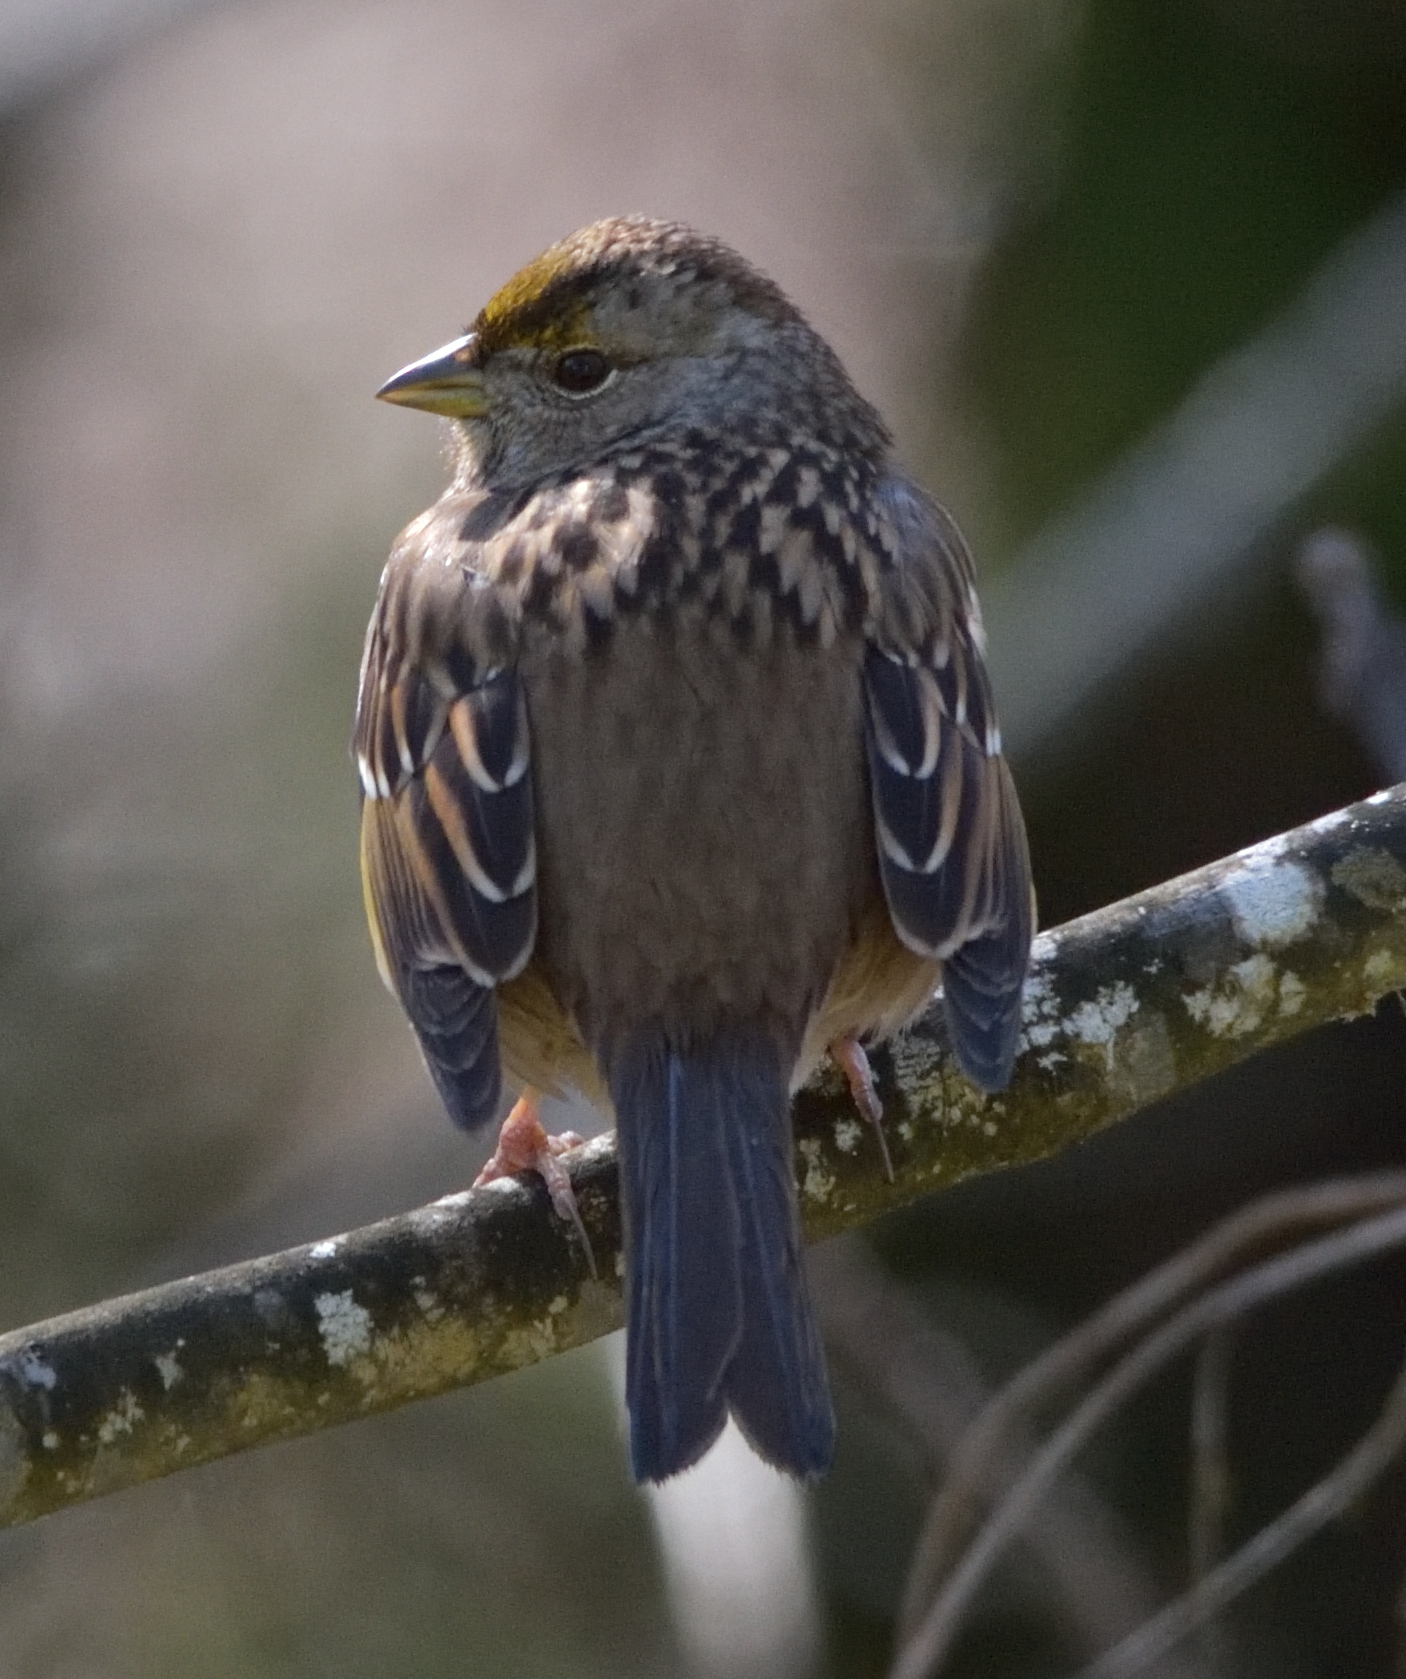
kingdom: Animalia
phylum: Chordata
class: Aves
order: Passeriformes
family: Passerellidae
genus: Zonotrichia
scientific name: Zonotrichia atricapilla
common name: Golden-crowned sparrow
